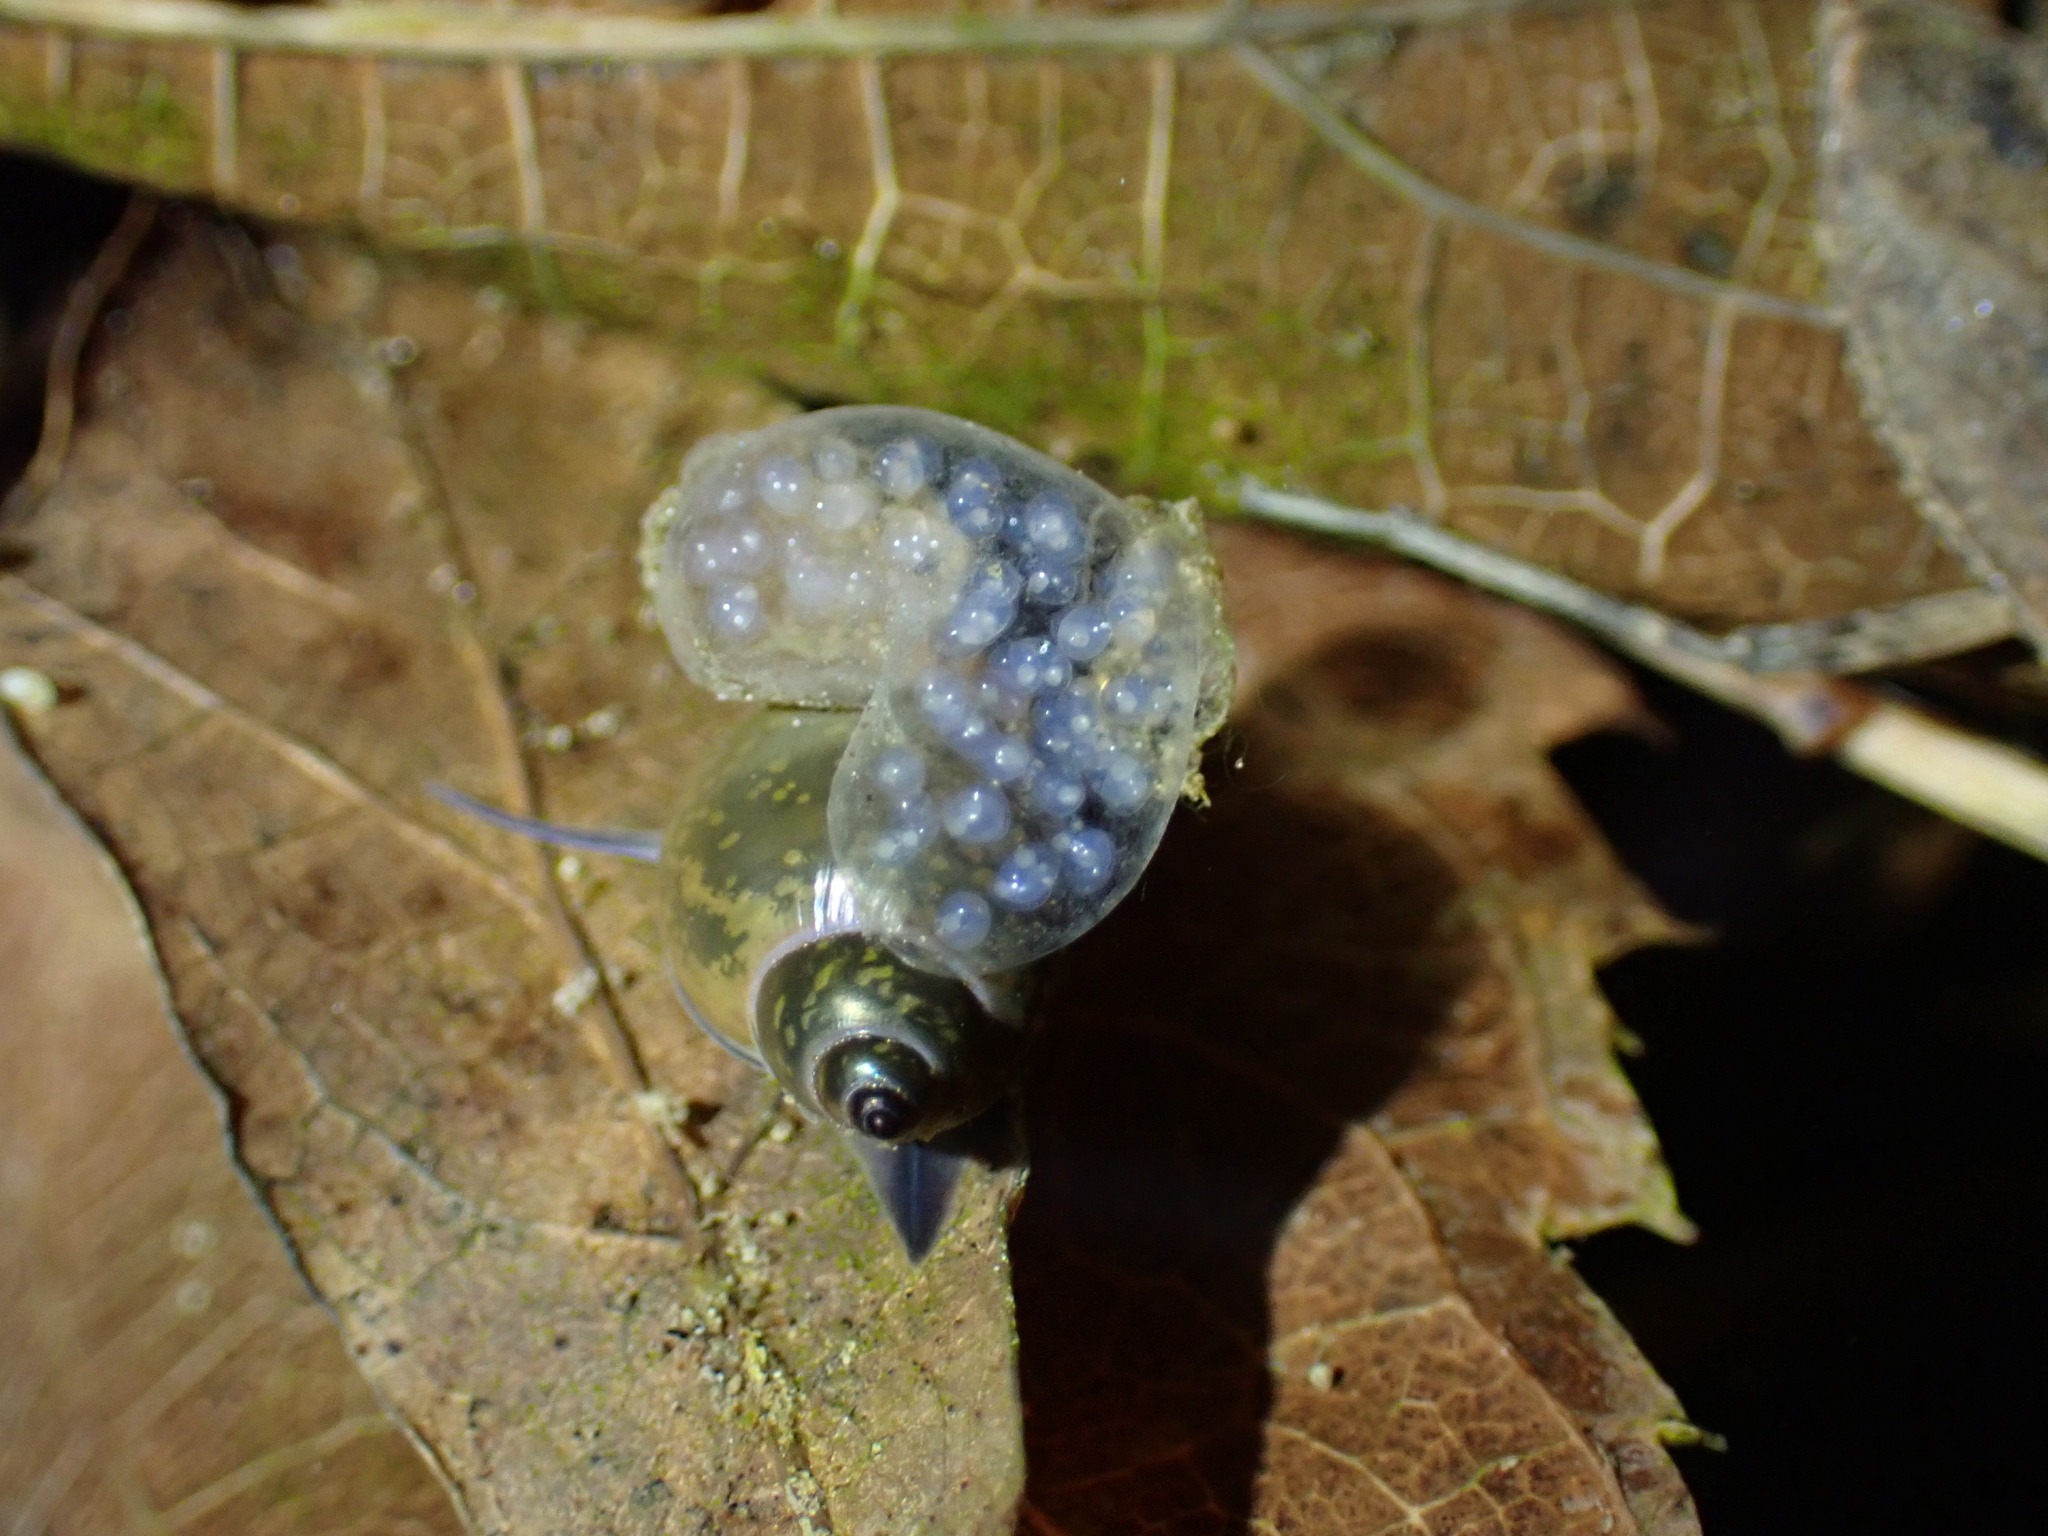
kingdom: Animalia
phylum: Mollusca
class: Gastropoda
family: Physidae
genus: Physella
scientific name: Physella acuta
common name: European physa
